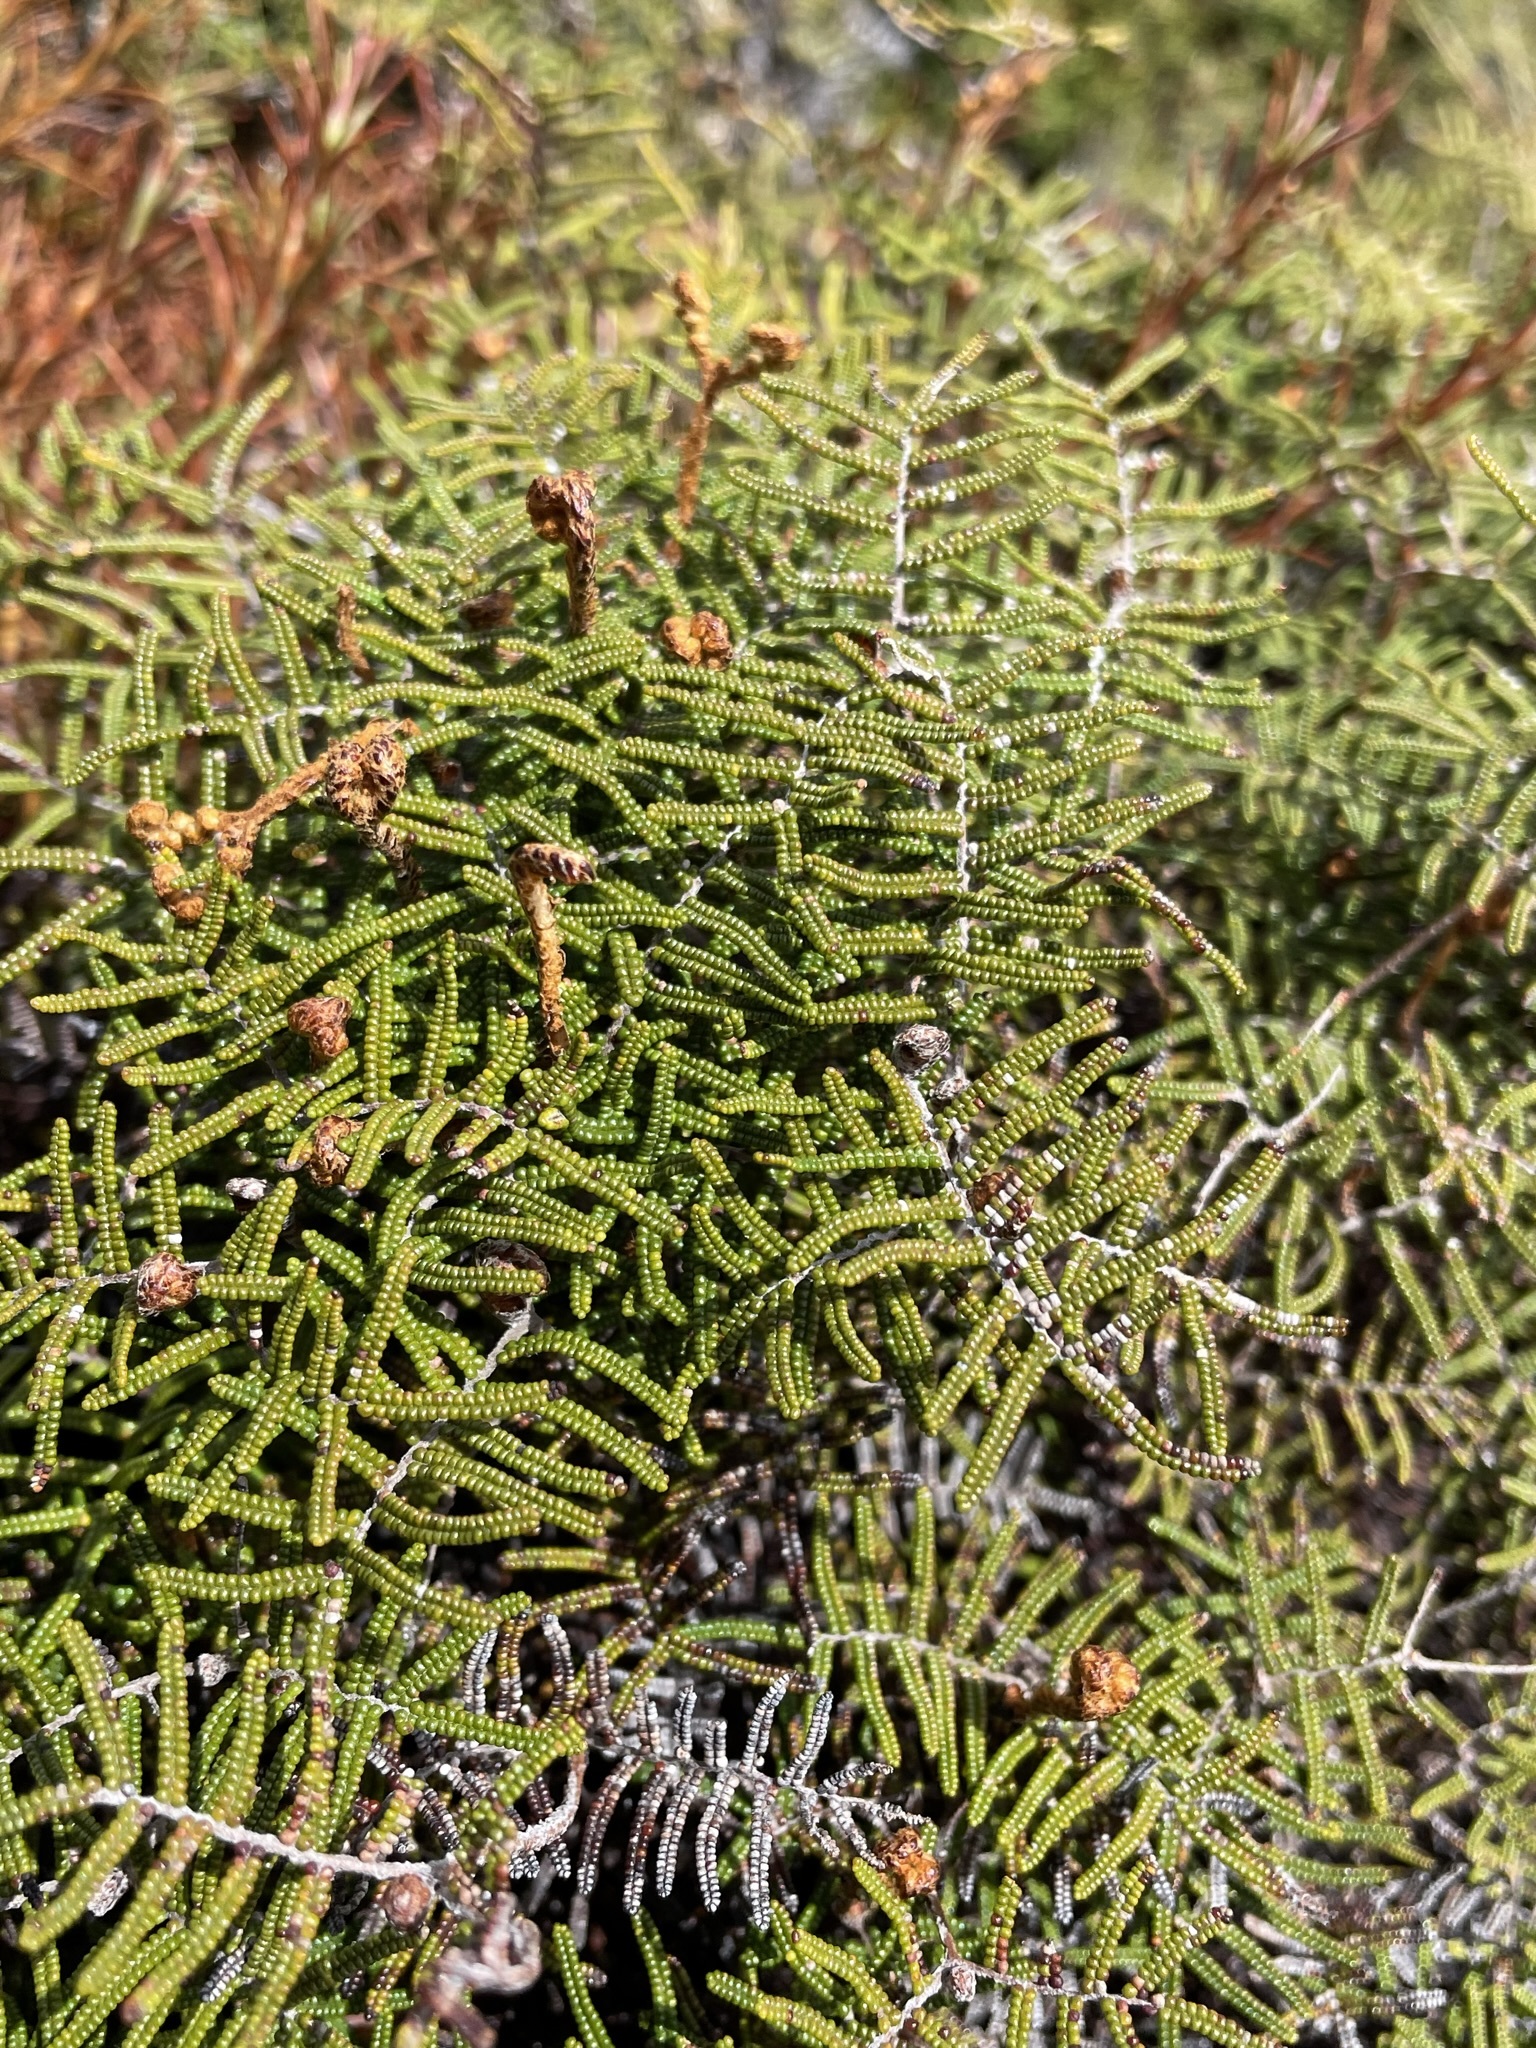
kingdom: Plantae
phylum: Tracheophyta
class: Polypodiopsida
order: Gleicheniales
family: Gleicheniaceae
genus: Gleichenia
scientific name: Gleichenia alpina
